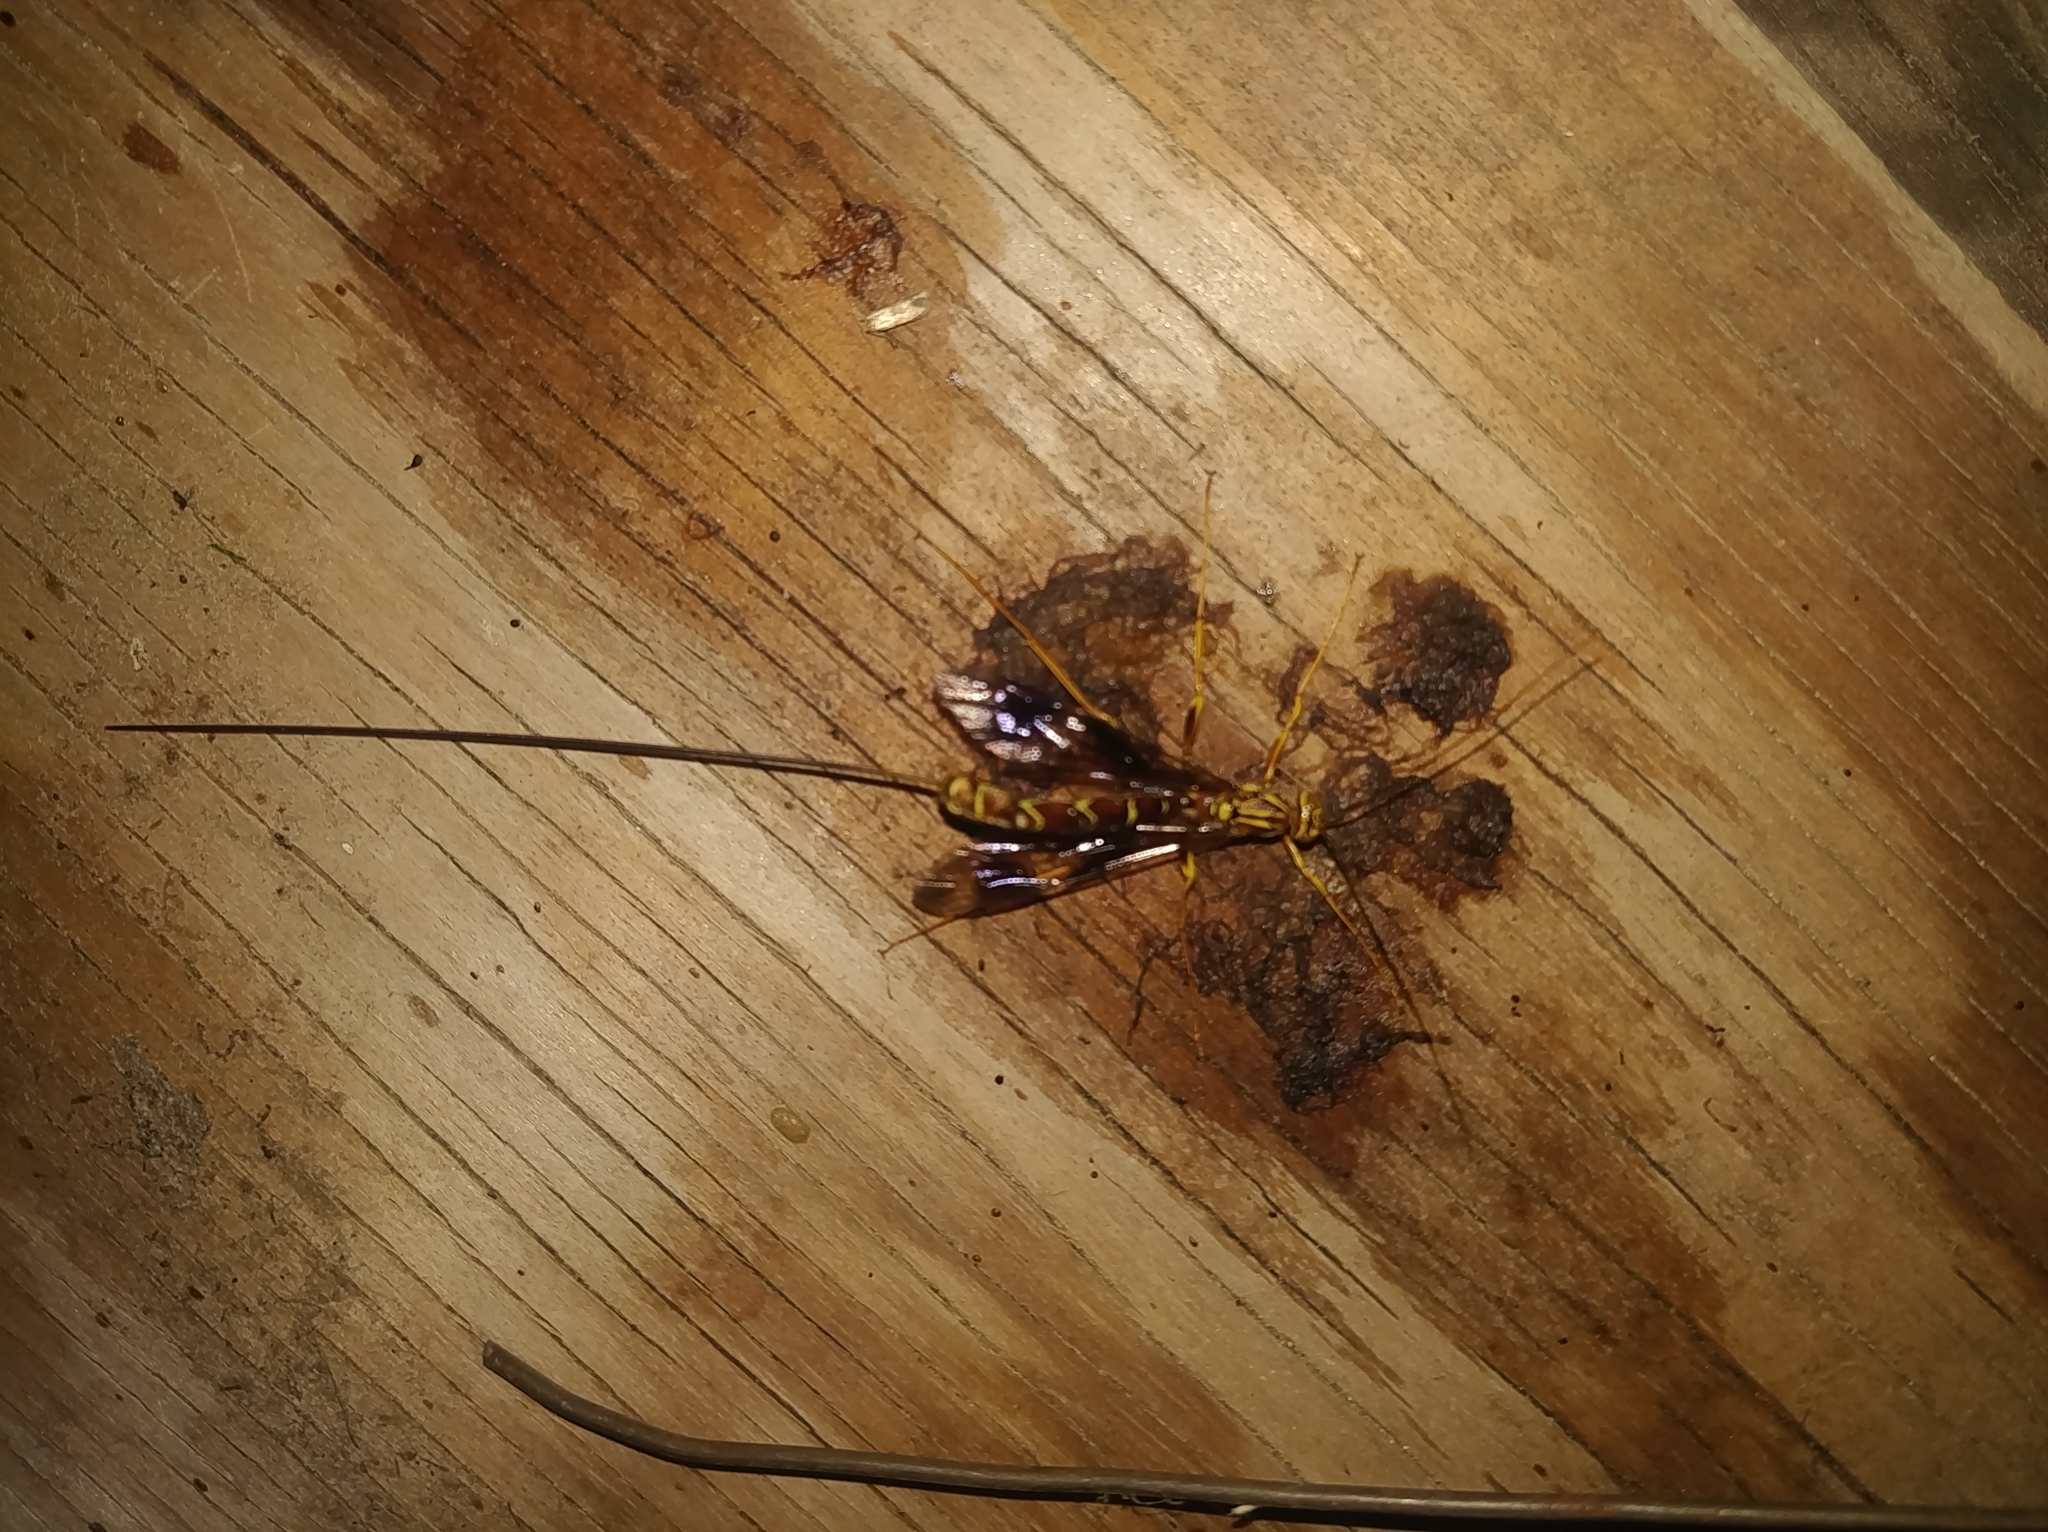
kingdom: Animalia
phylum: Arthropoda
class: Insecta
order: Hymenoptera
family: Ichneumonidae
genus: Megarhyssa
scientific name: Megarhyssa macrura
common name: Long-tailed giant ichneumonid wasp
